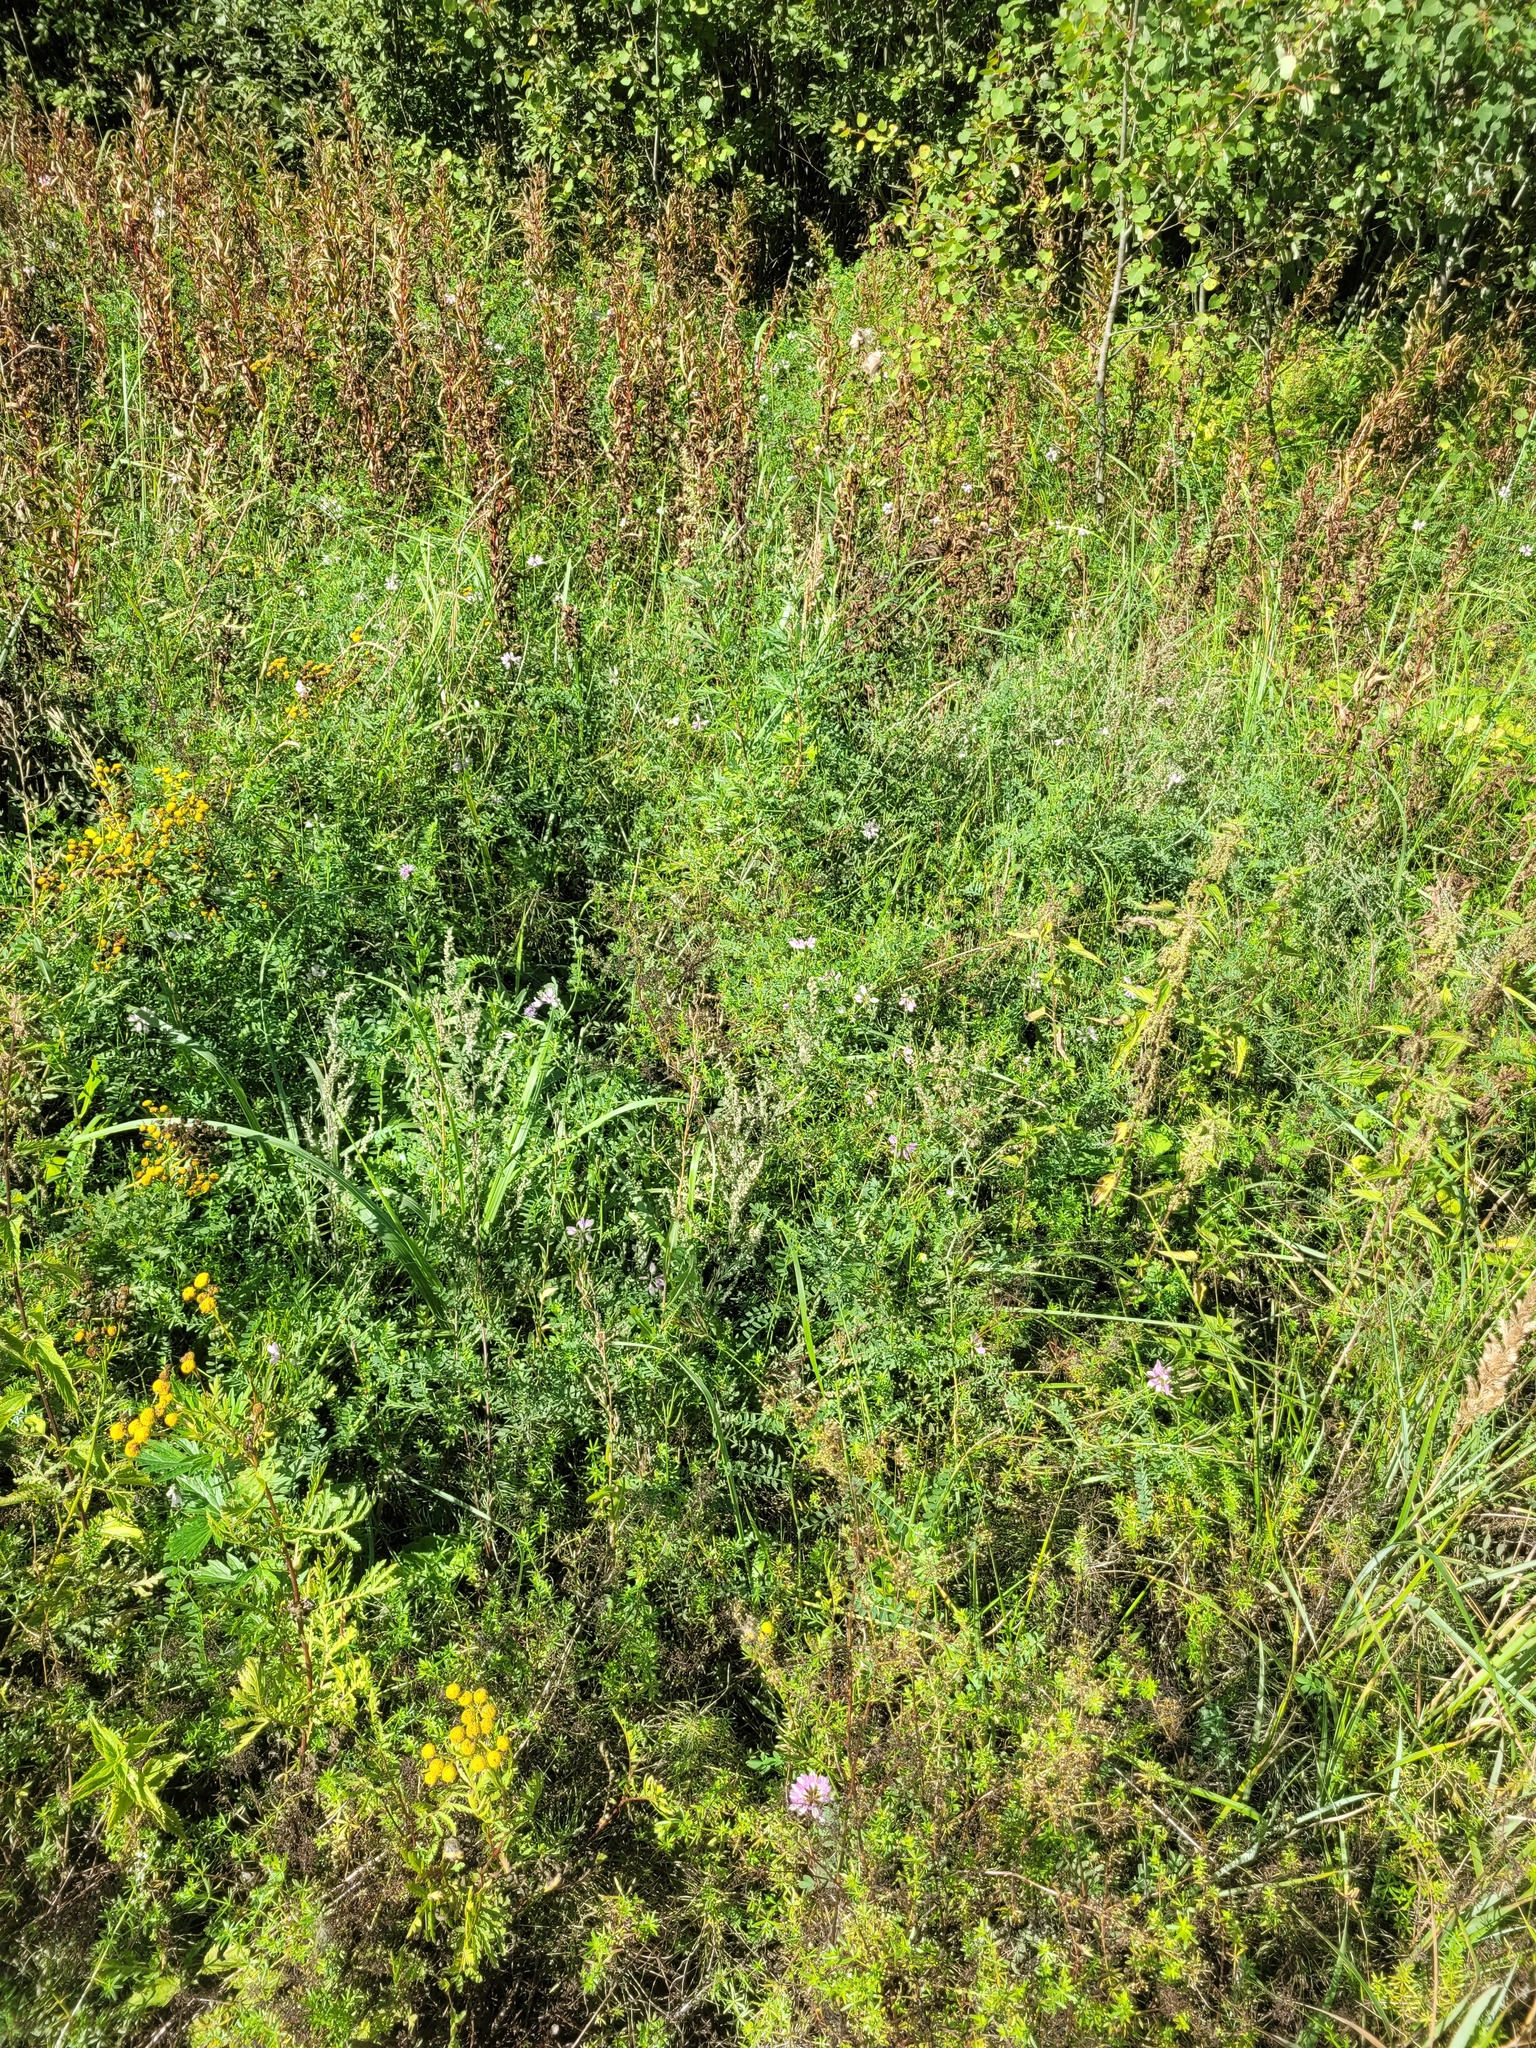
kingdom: Plantae
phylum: Tracheophyta
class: Magnoliopsida
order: Fabales
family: Fabaceae
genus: Coronilla
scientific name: Coronilla varia
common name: Crownvetch
